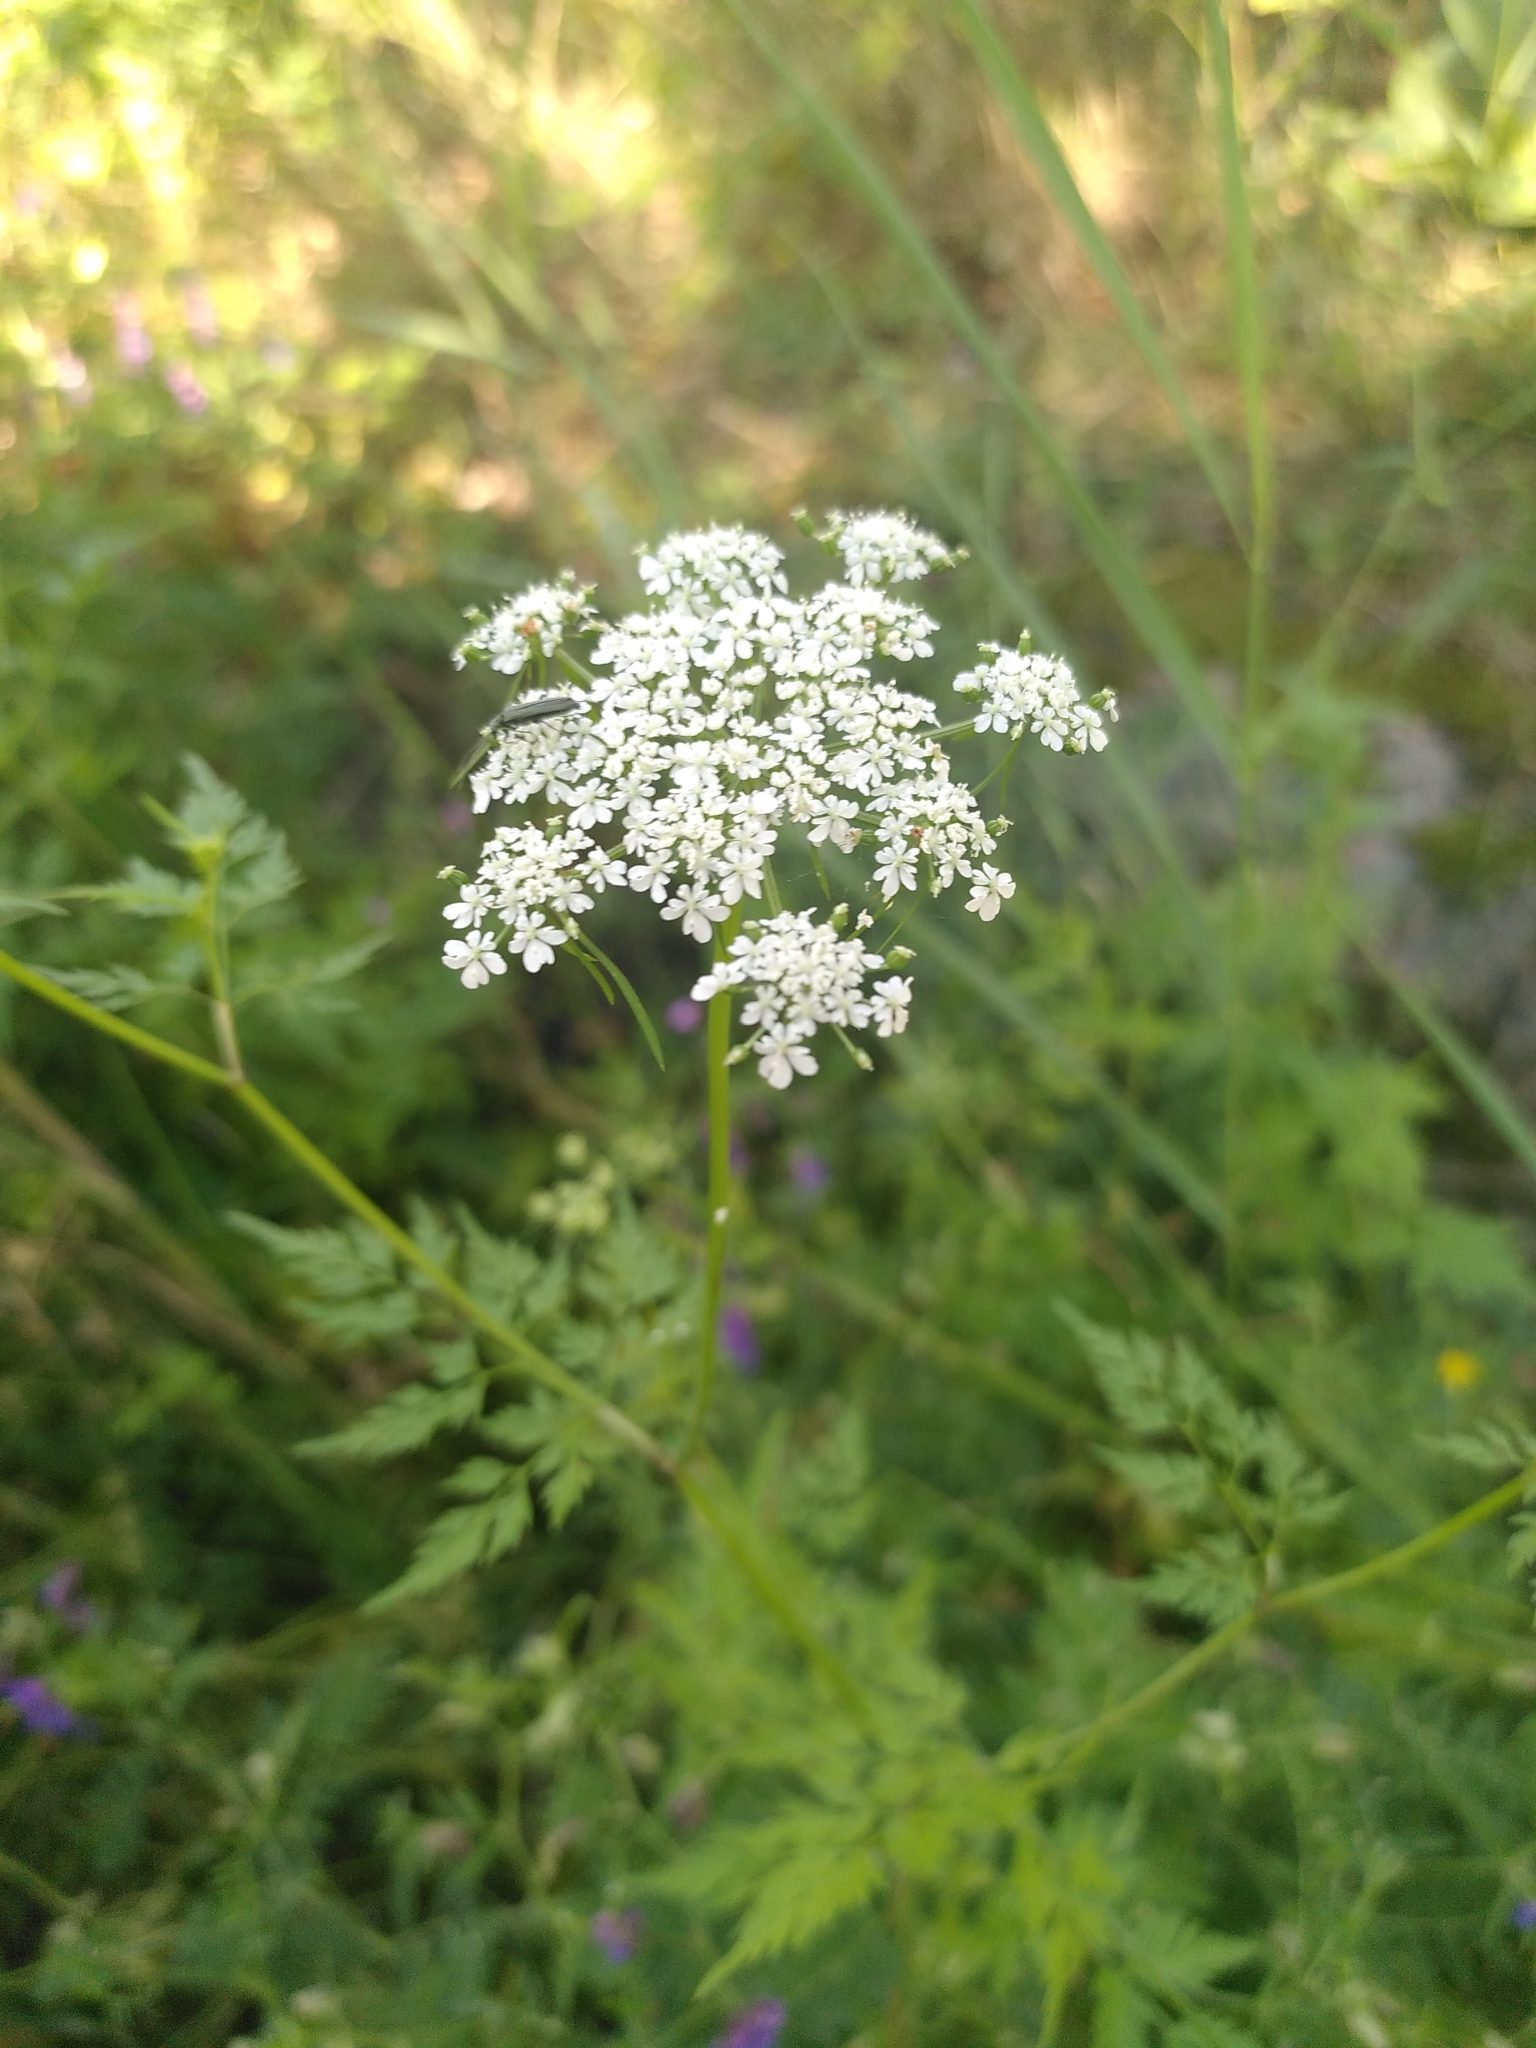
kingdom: Plantae
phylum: Tracheophyta
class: Magnoliopsida
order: Apiales
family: Apiaceae
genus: Aethusa
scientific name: Aethusa cynapium
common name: Fool's parsley
